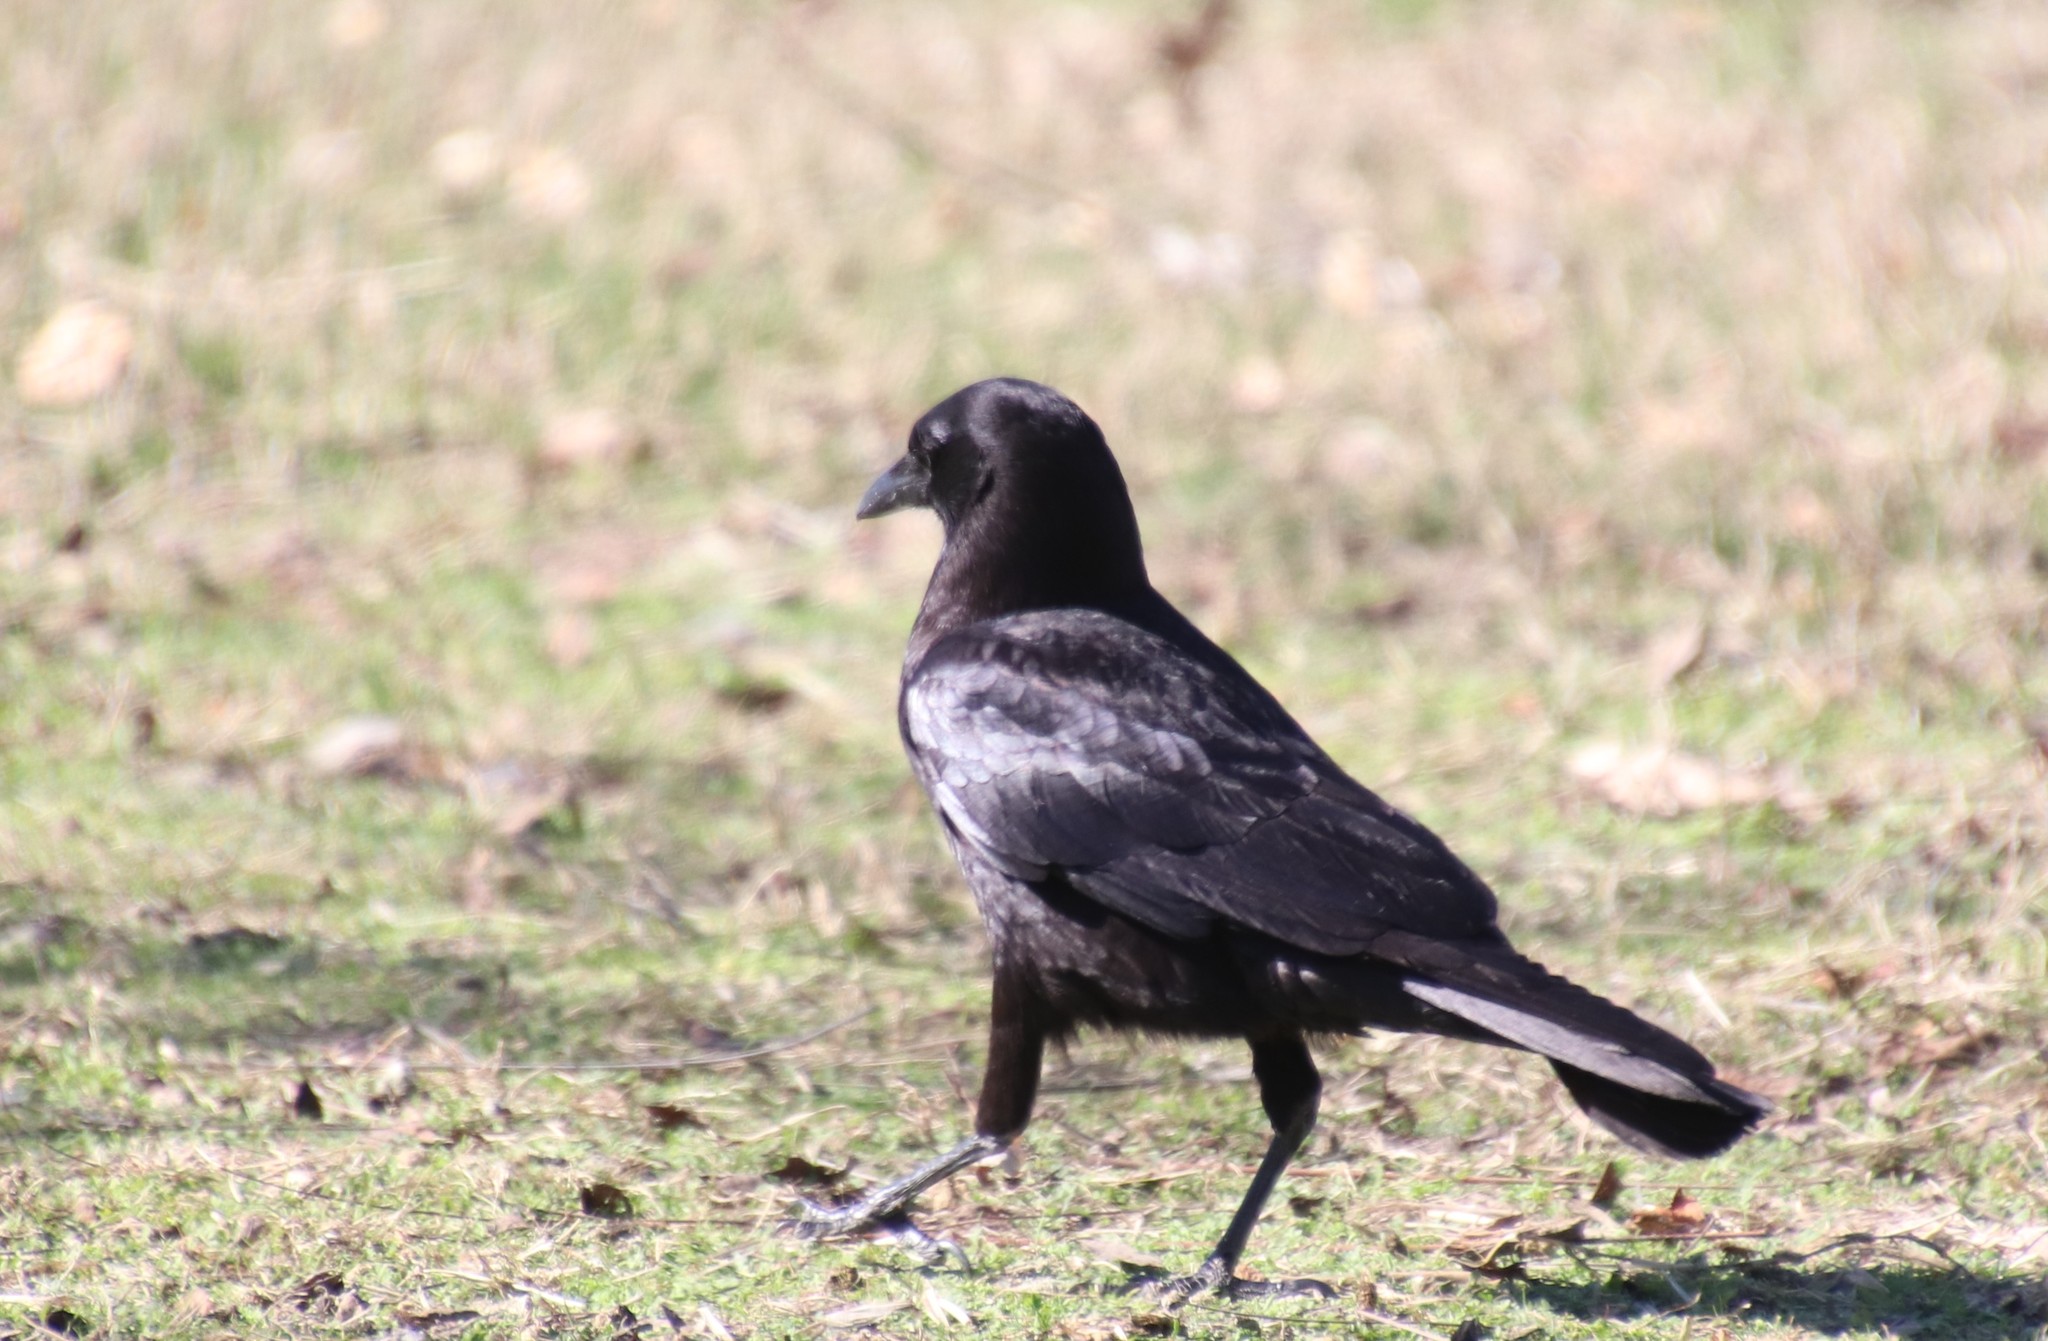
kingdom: Animalia
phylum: Chordata
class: Aves
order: Passeriformes
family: Corvidae
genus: Corvus
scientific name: Corvus brachyrhynchos
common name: American crow
